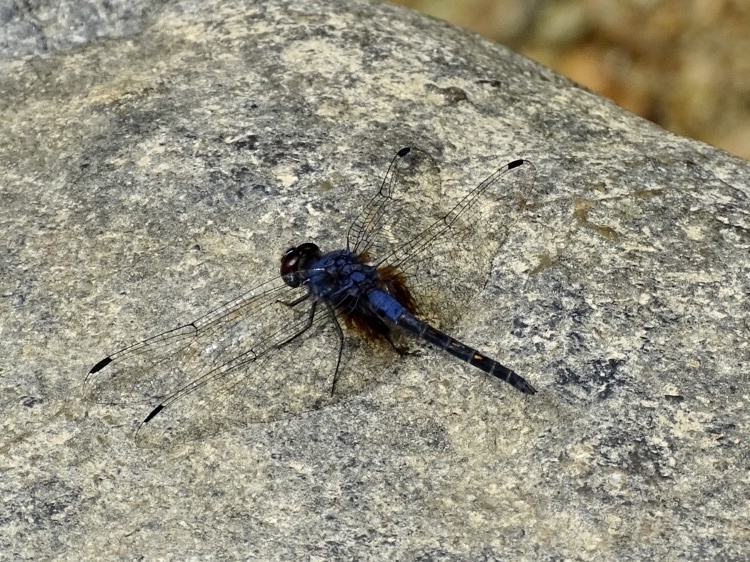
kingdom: Animalia
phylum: Arthropoda
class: Insecta
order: Odonata
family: Libellulidae
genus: Trithemis
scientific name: Trithemis festiva
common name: Indigo dropwing
